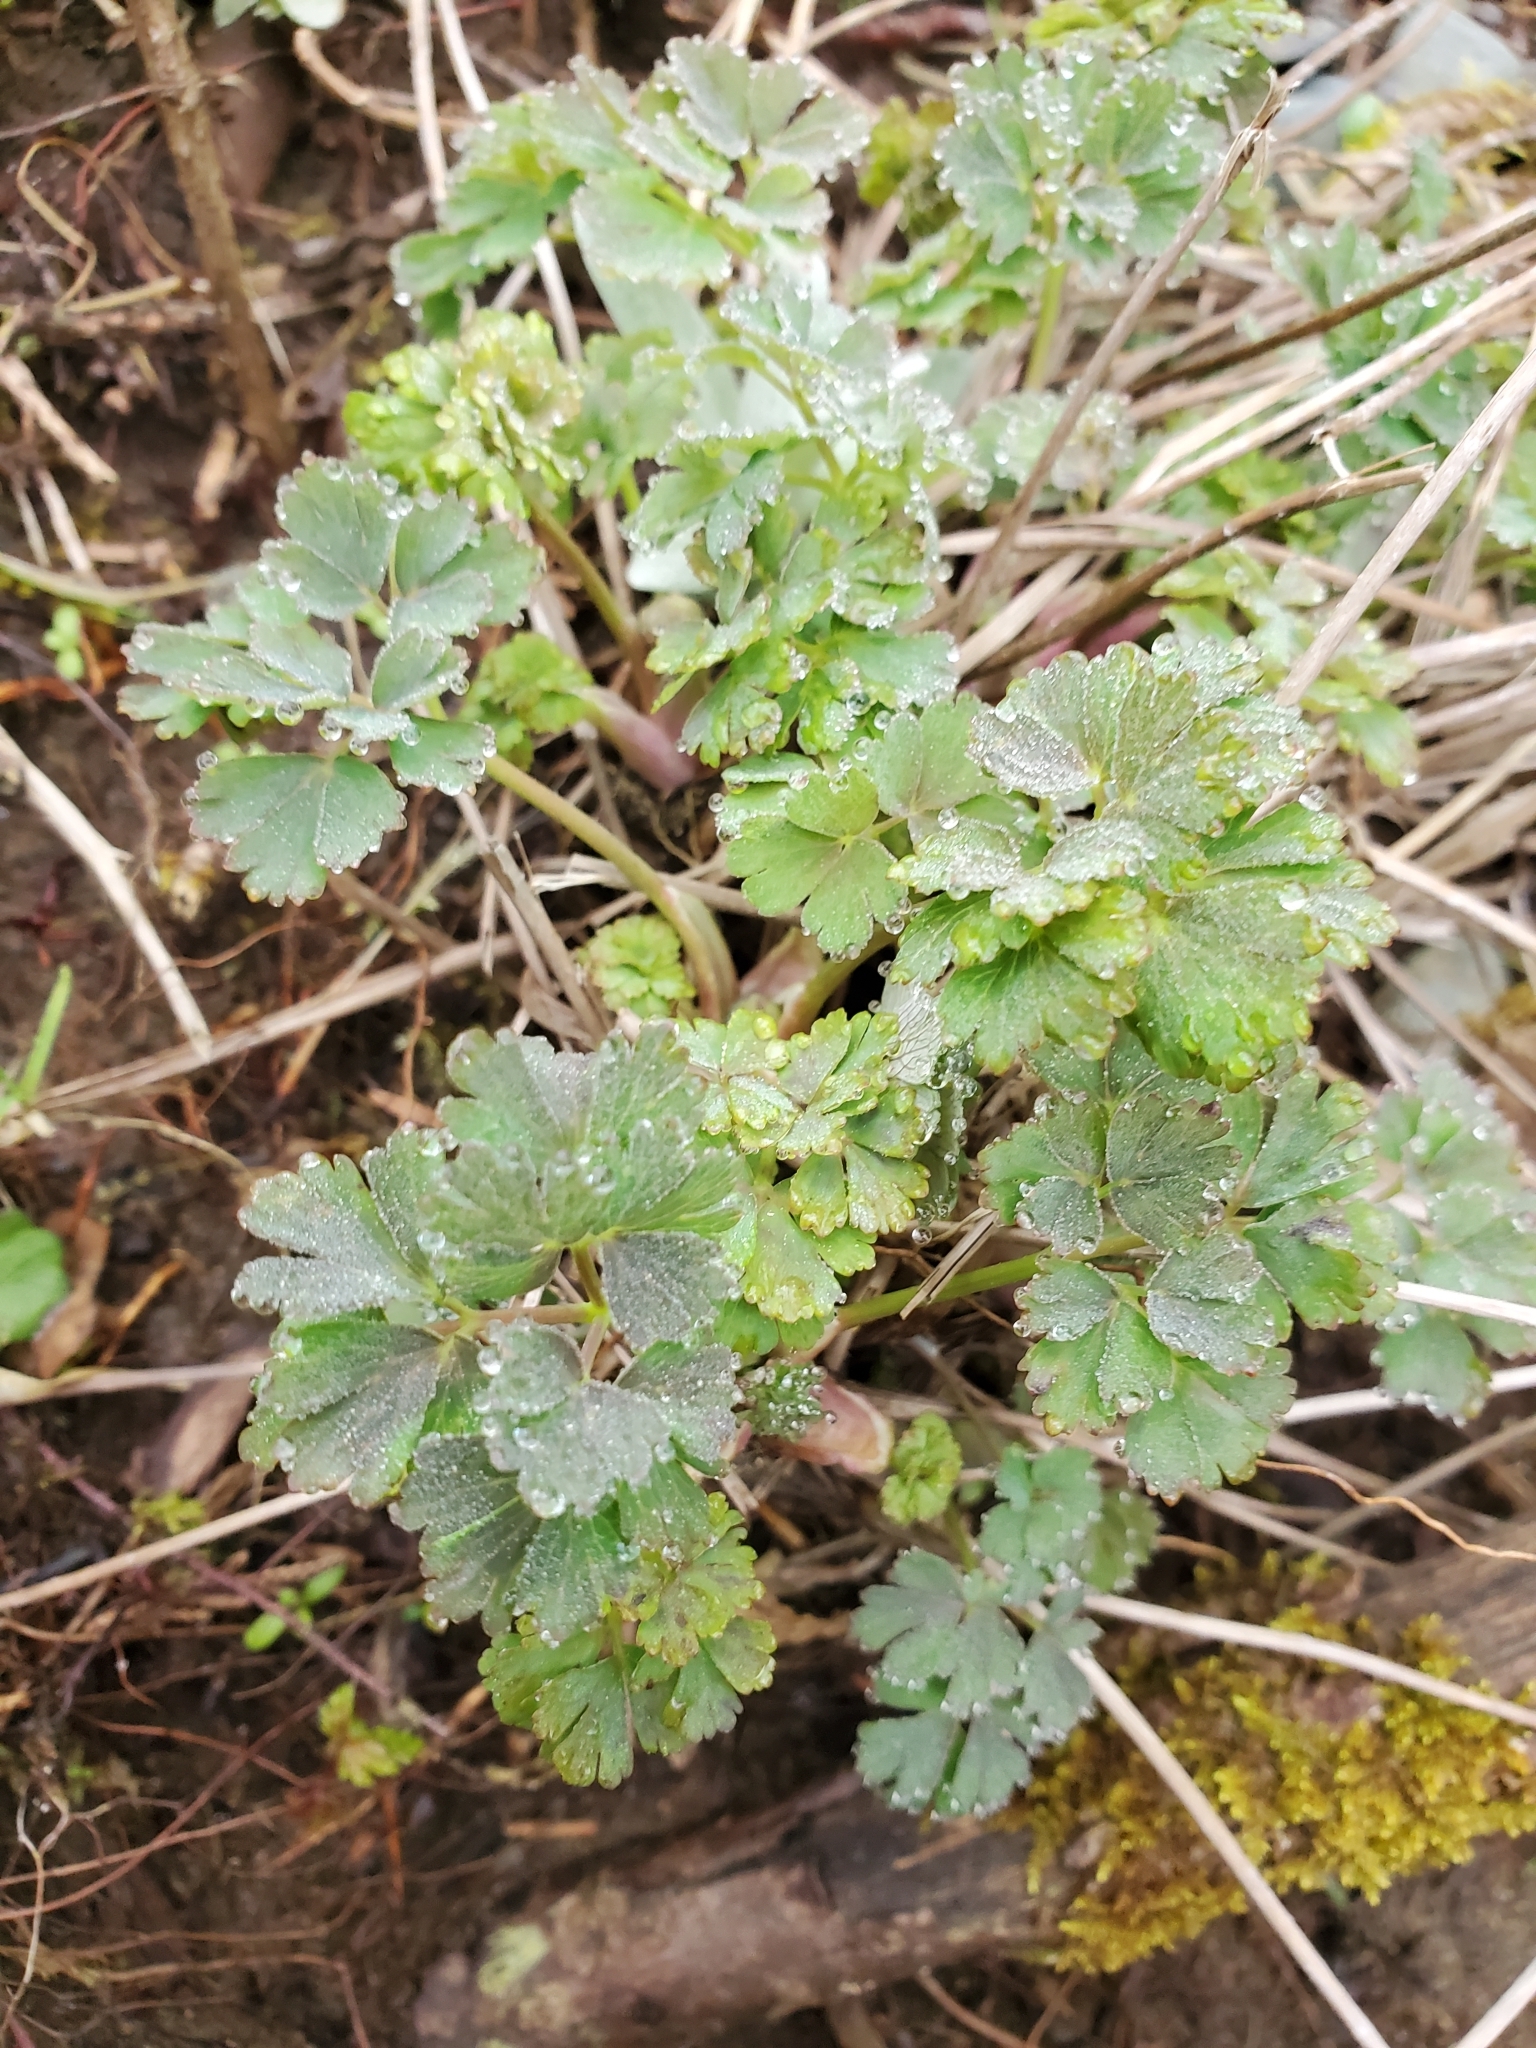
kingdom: Plantae
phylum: Tracheophyta
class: Magnoliopsida
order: Ranunculales
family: Ranunculaceae
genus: Aquilegia
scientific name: Aquilegia formosa
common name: Sitka columbine
